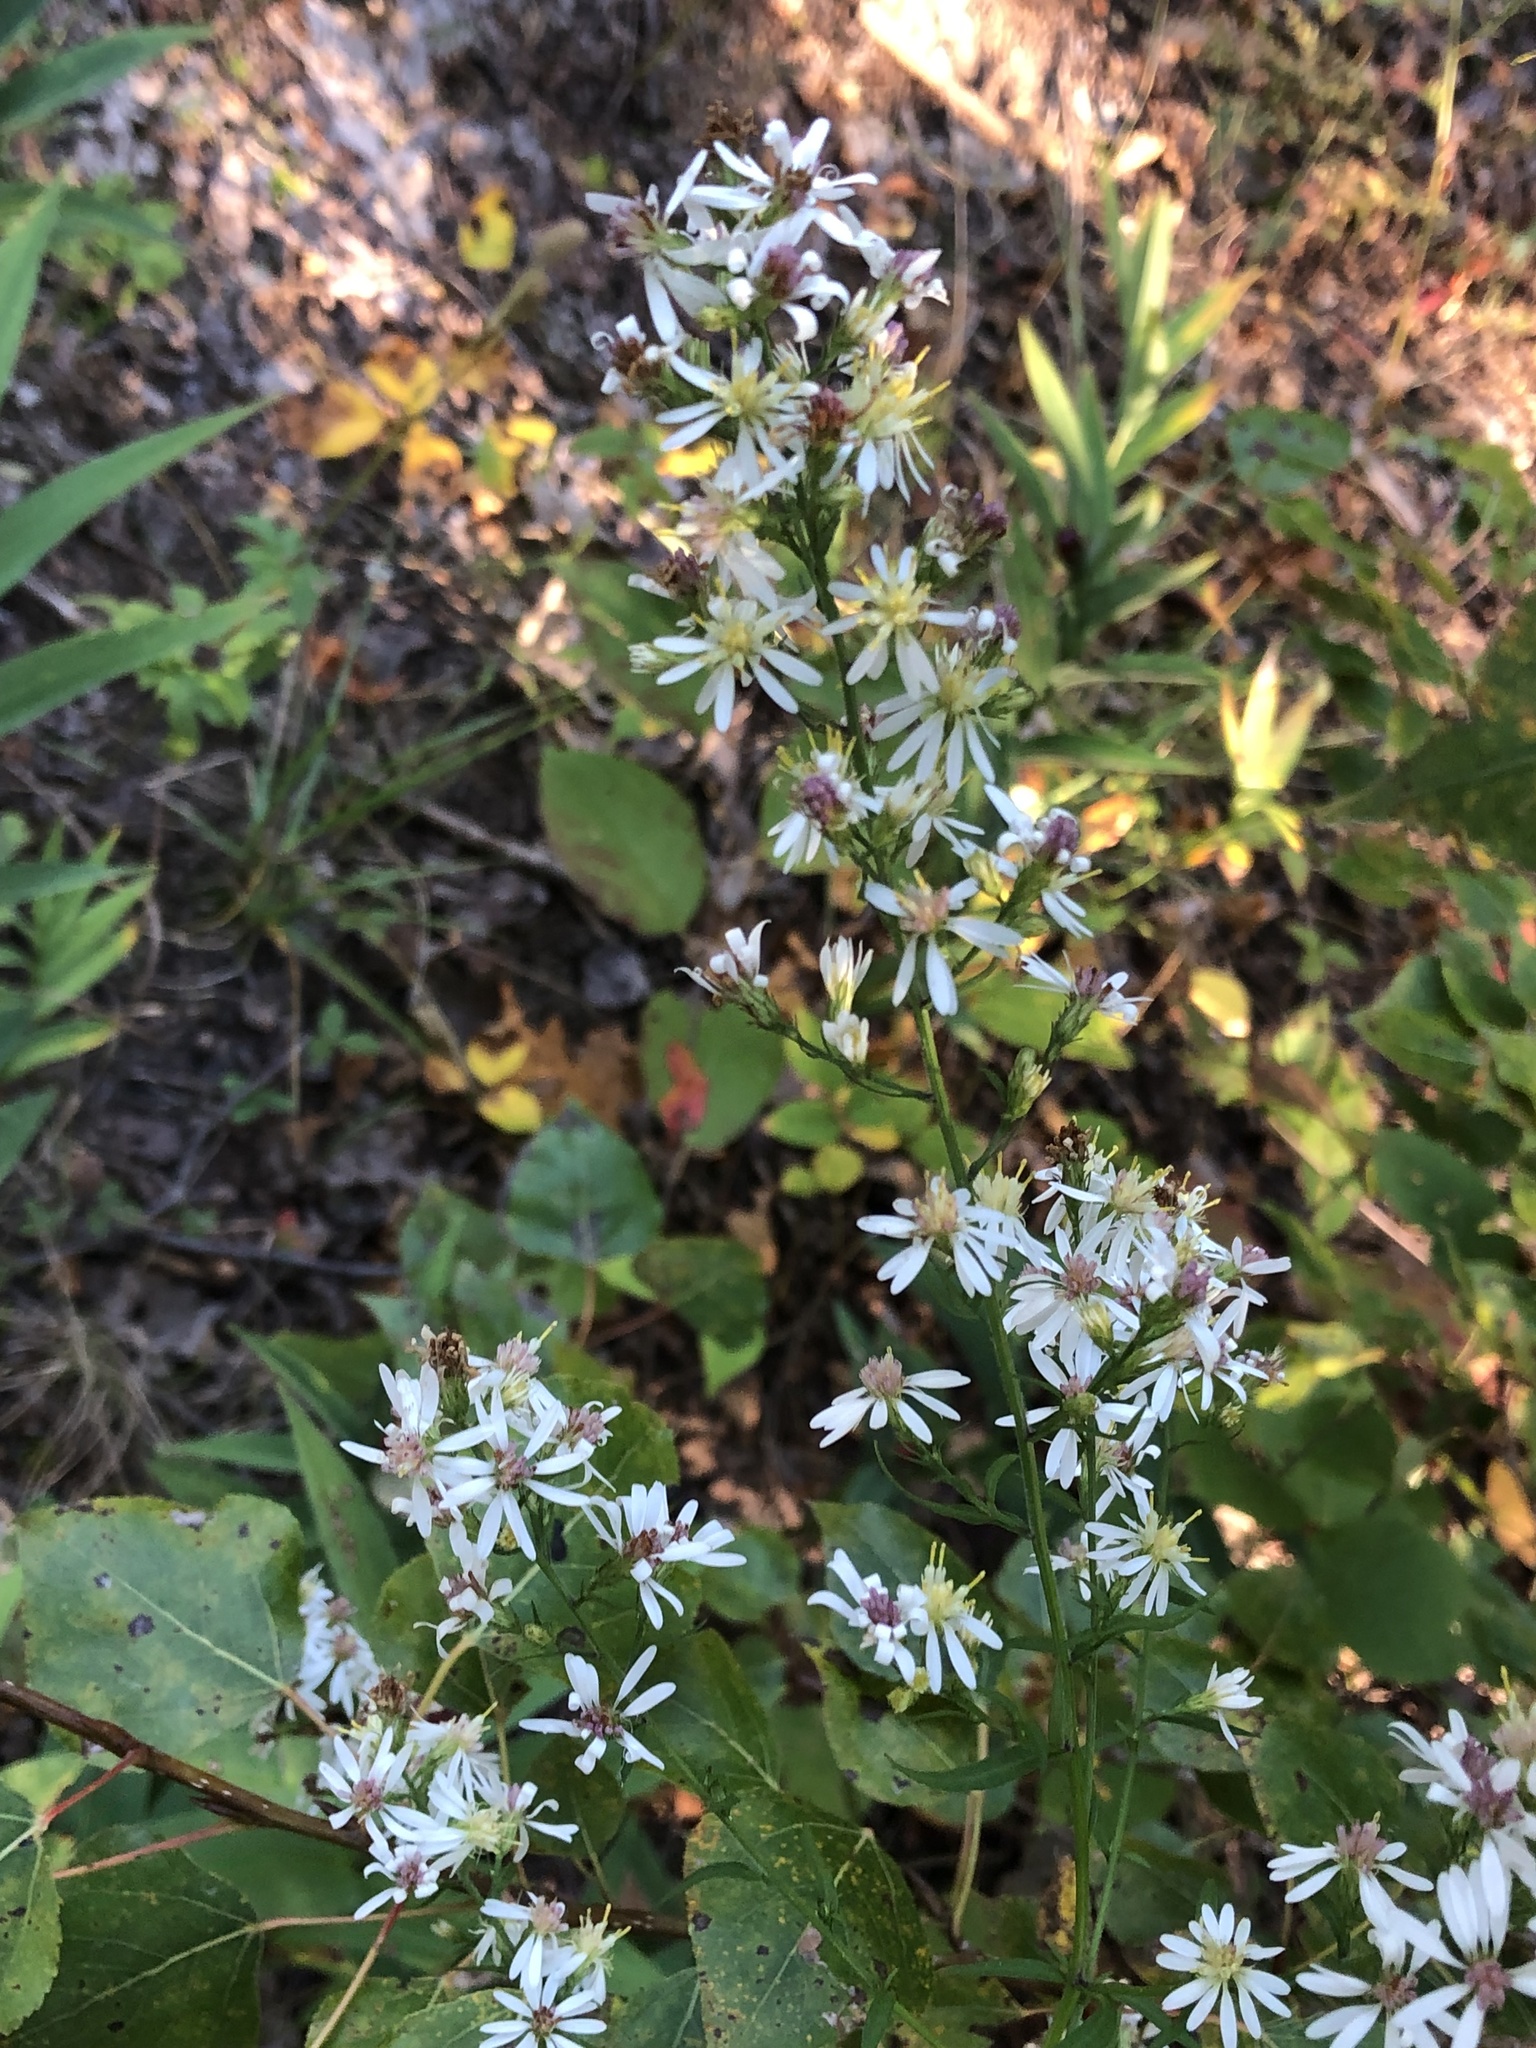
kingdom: Plantae
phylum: Tracheophyta
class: Magnoliopsida
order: Asterales
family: Asteraceae
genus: Symphyotrichum
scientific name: Symphyotrichum urophyllum
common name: Arrow-leaved aster
